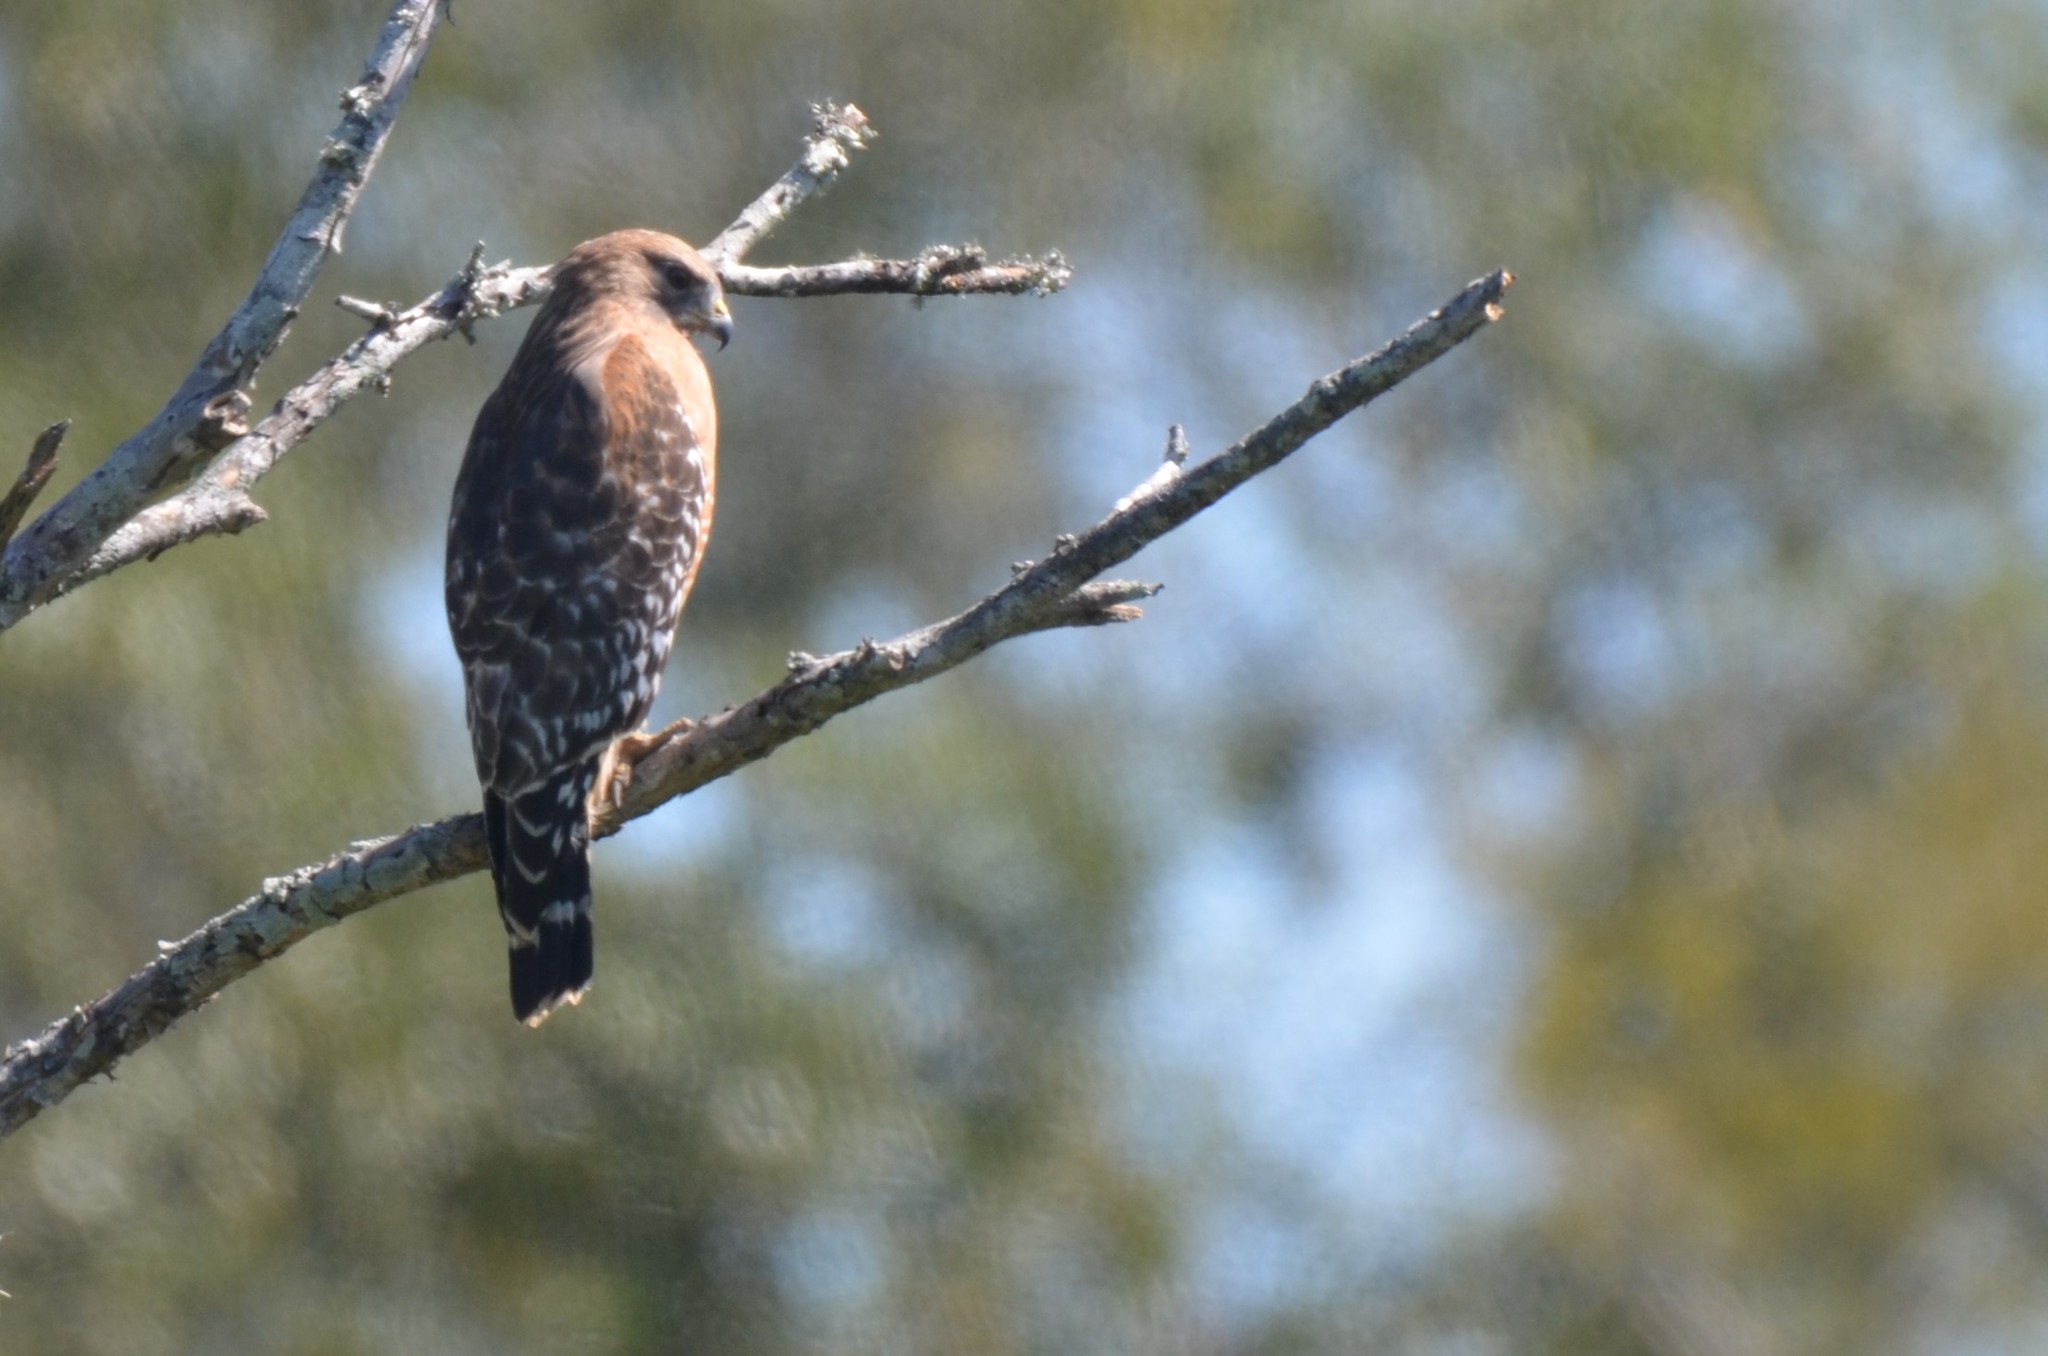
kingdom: Animalia
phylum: Chordata
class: Aves
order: Accipitriformes
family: Accipitridae
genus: Buteo
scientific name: Buteo lineatus
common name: Red-shouldered hawk
